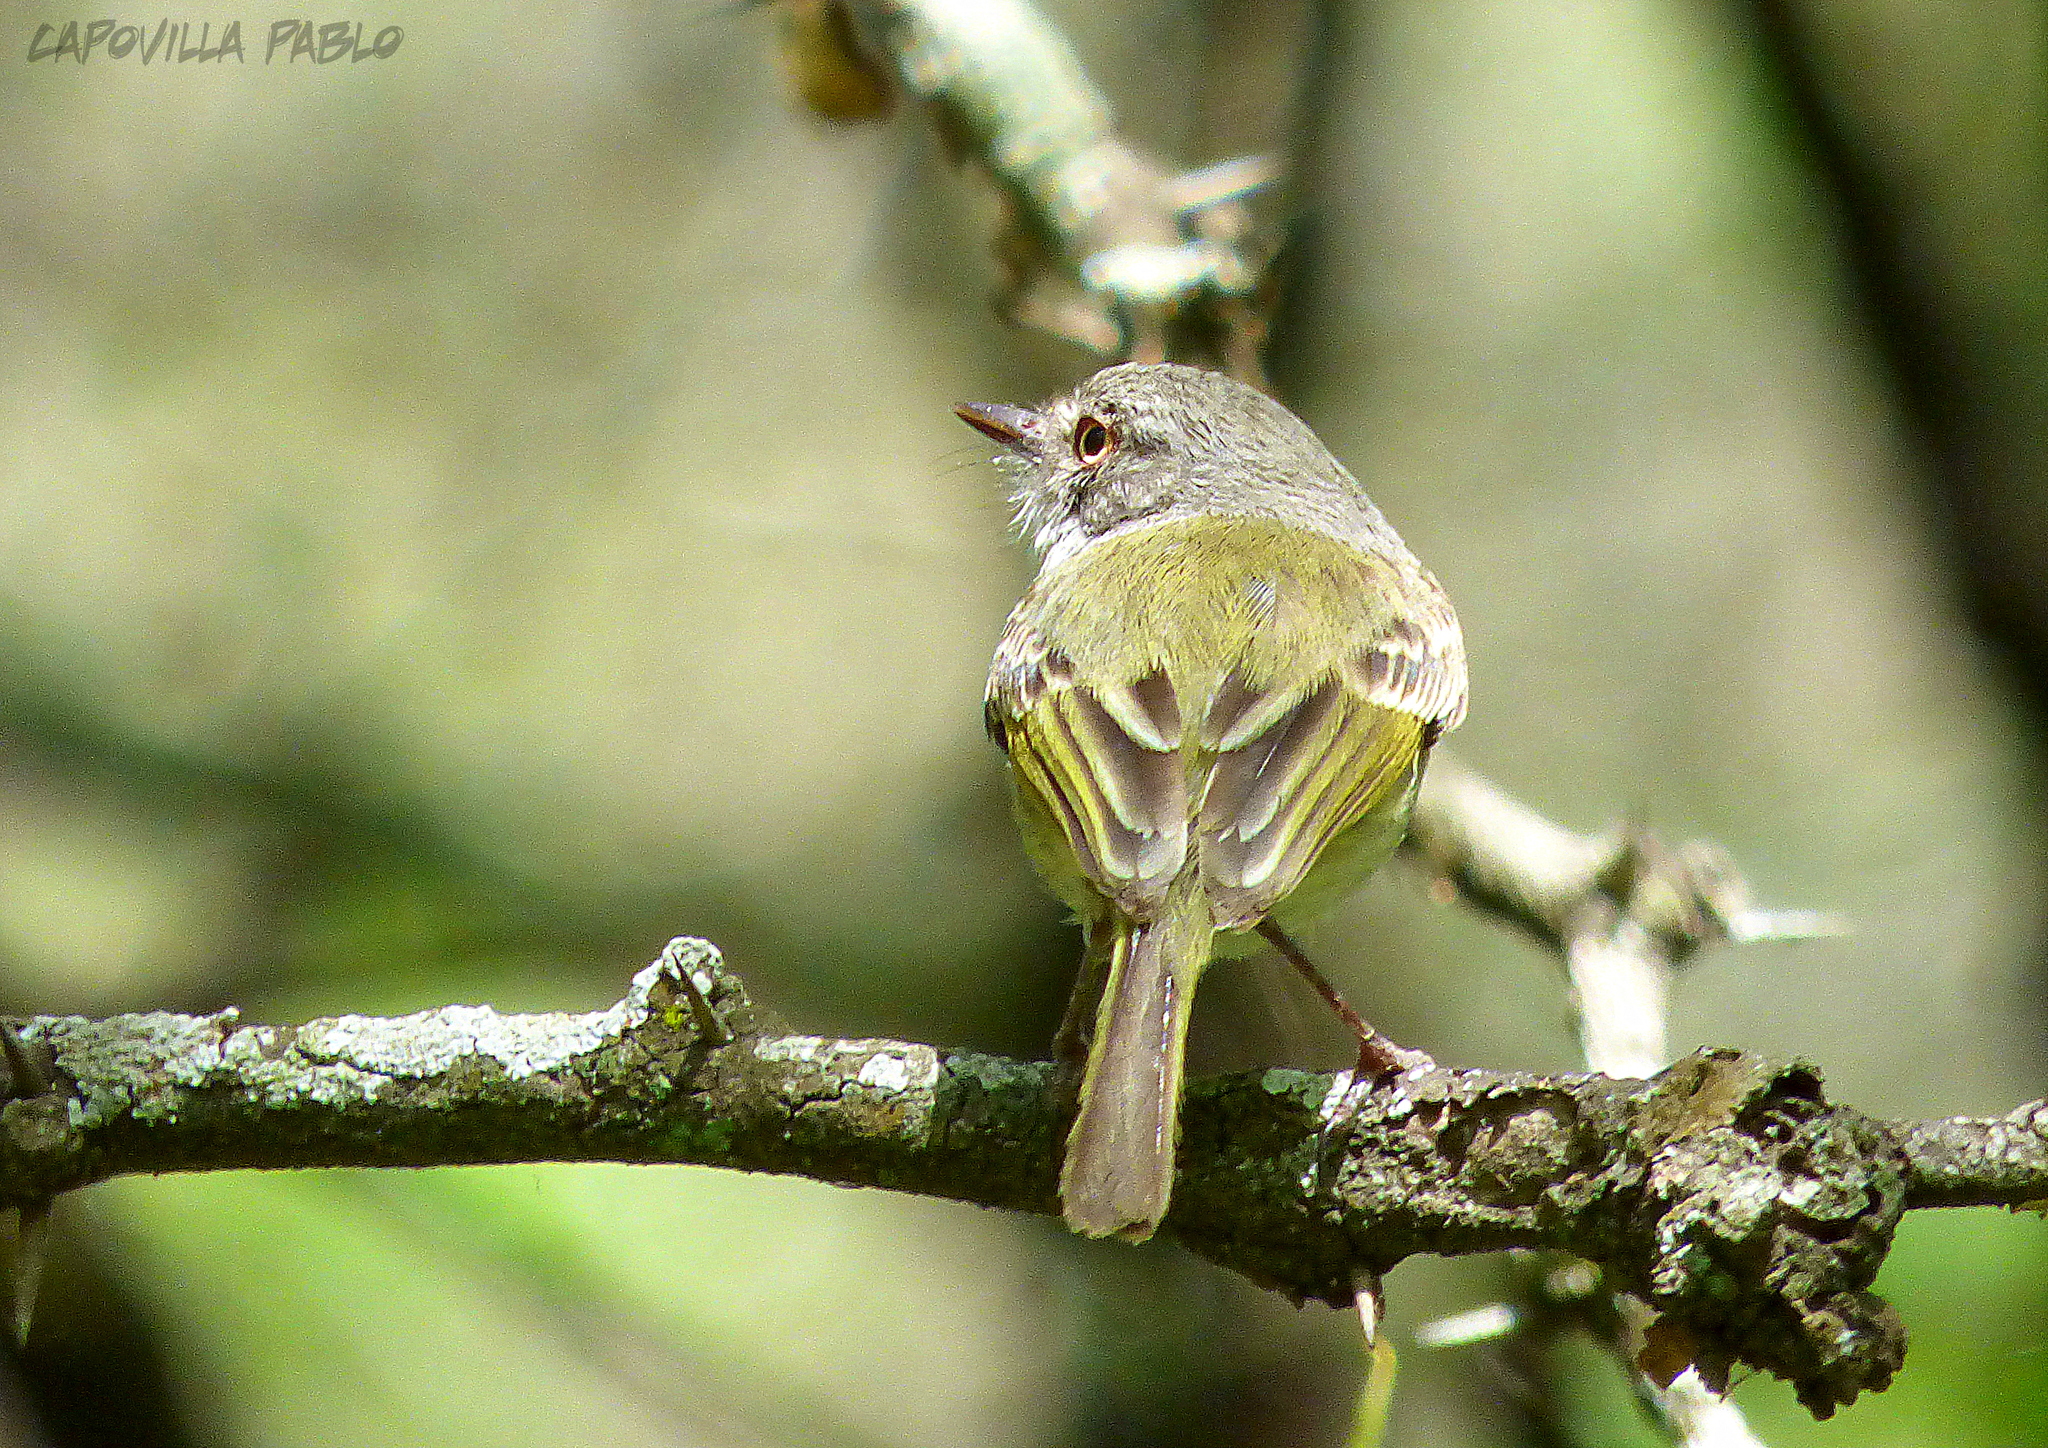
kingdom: Animalia
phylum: Chordata
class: Aves
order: Passeriformes
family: Tyrannidae
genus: Hemitriccus
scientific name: Hemitriccus margaritaceiventer
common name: Pearly-vented tody-tyrant
